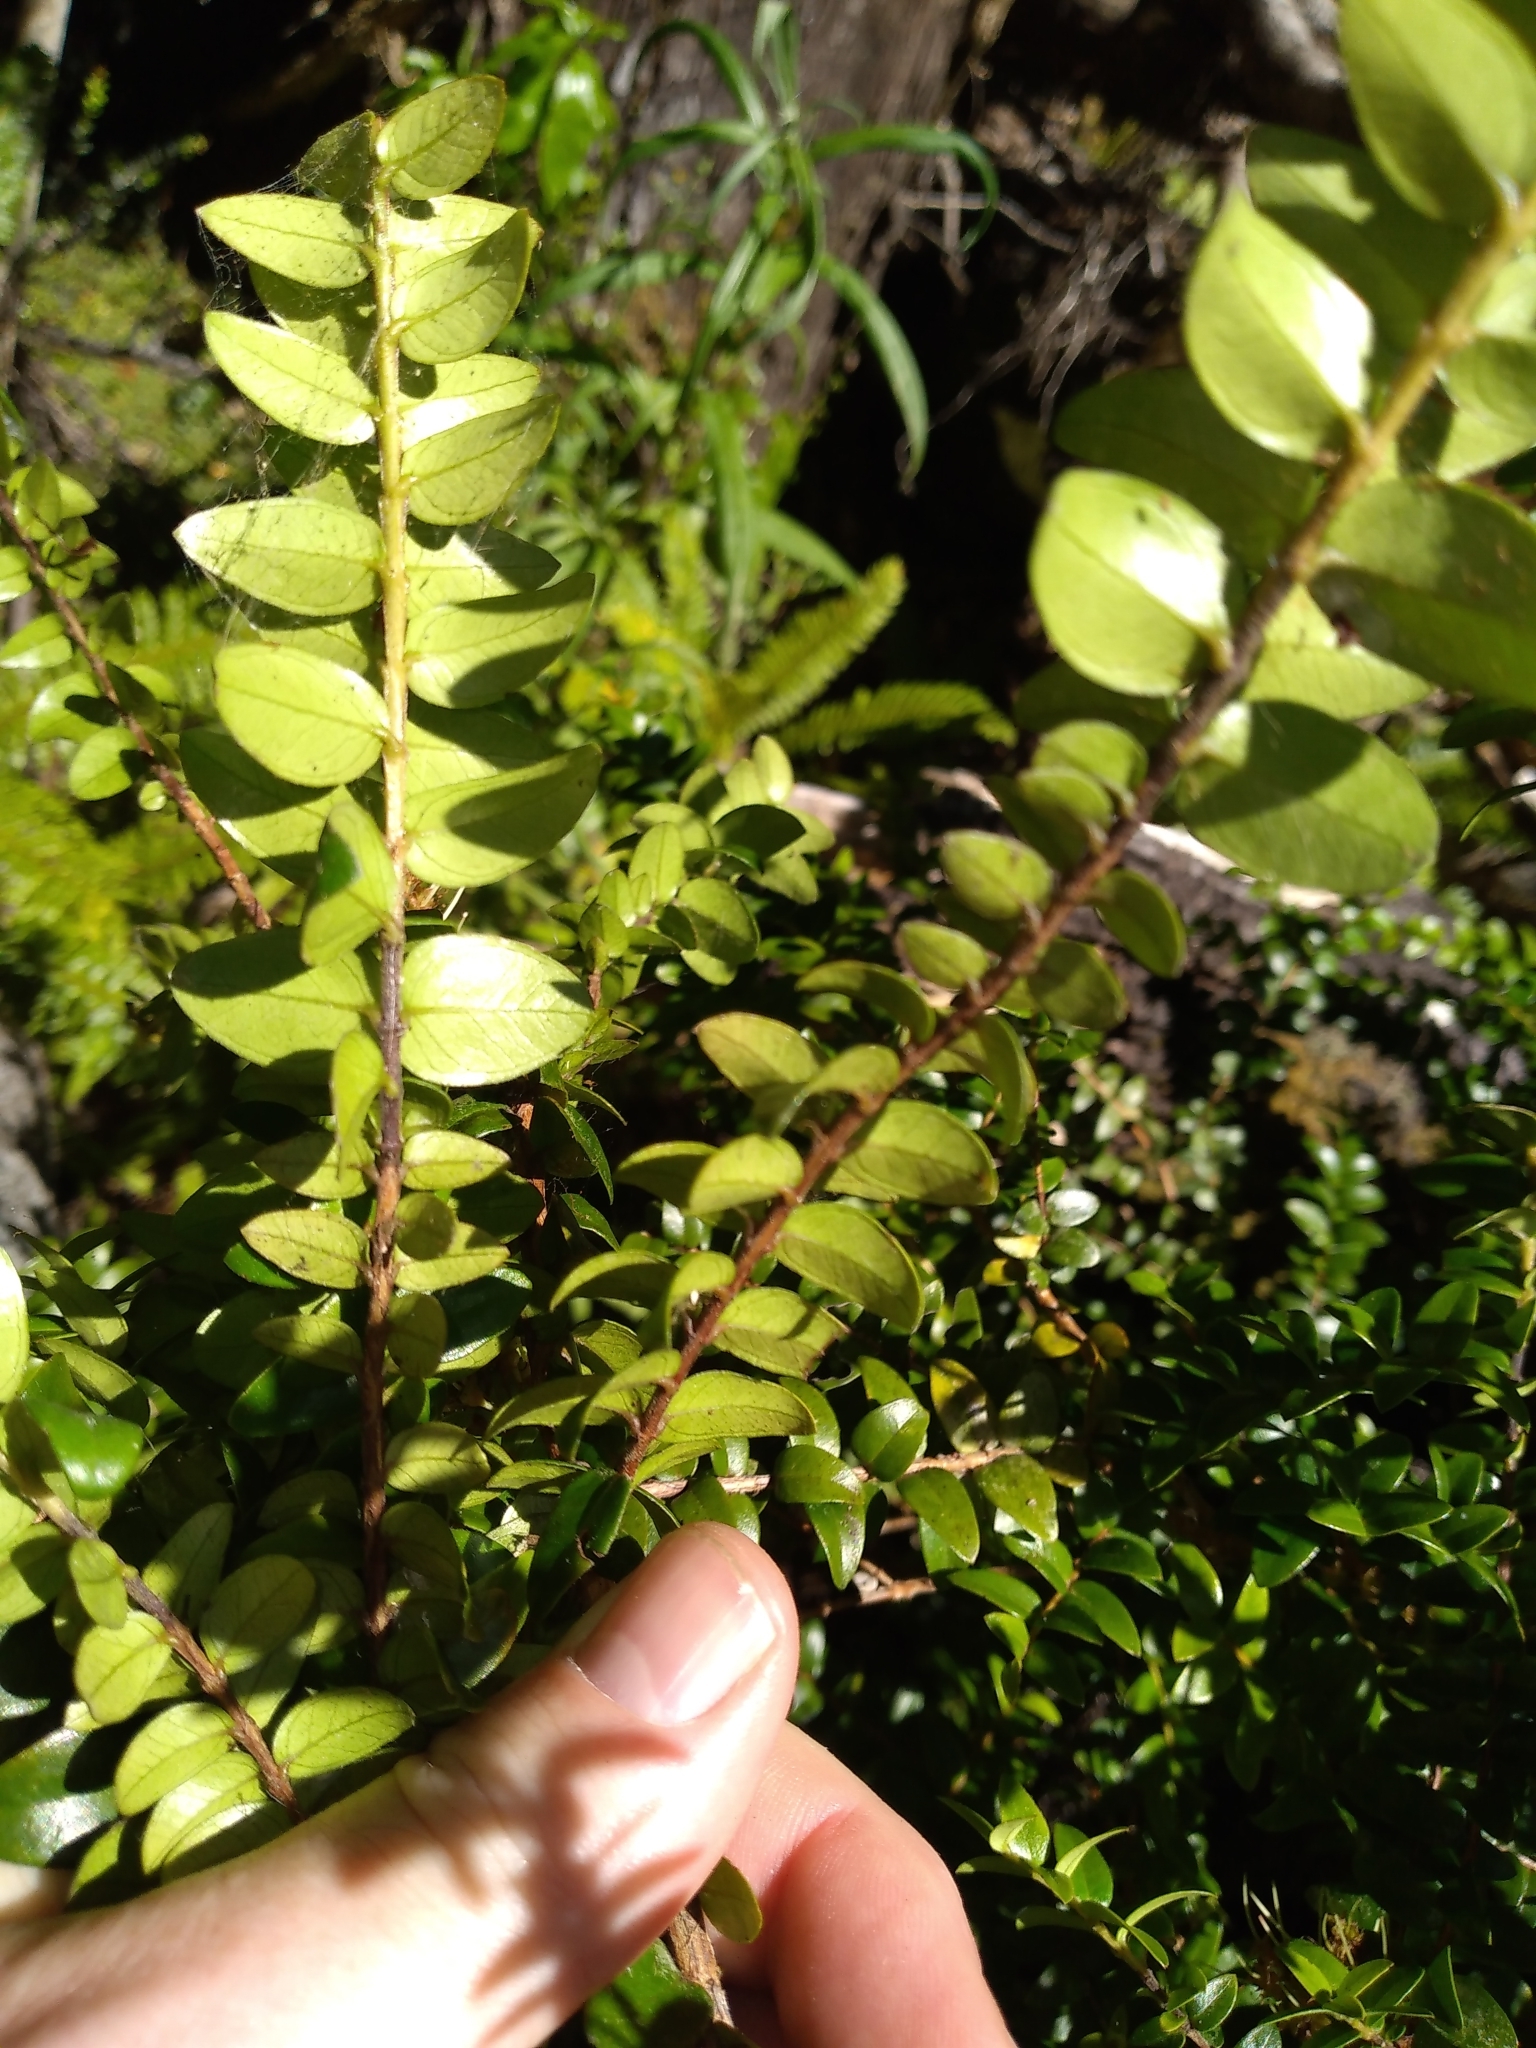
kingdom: Plantae
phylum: Tracheophyta
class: Magnoliopsida
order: Myrtales
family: Myrtaceae
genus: Metrosideros
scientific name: Metrosideros diffusa
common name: Small ratavine
